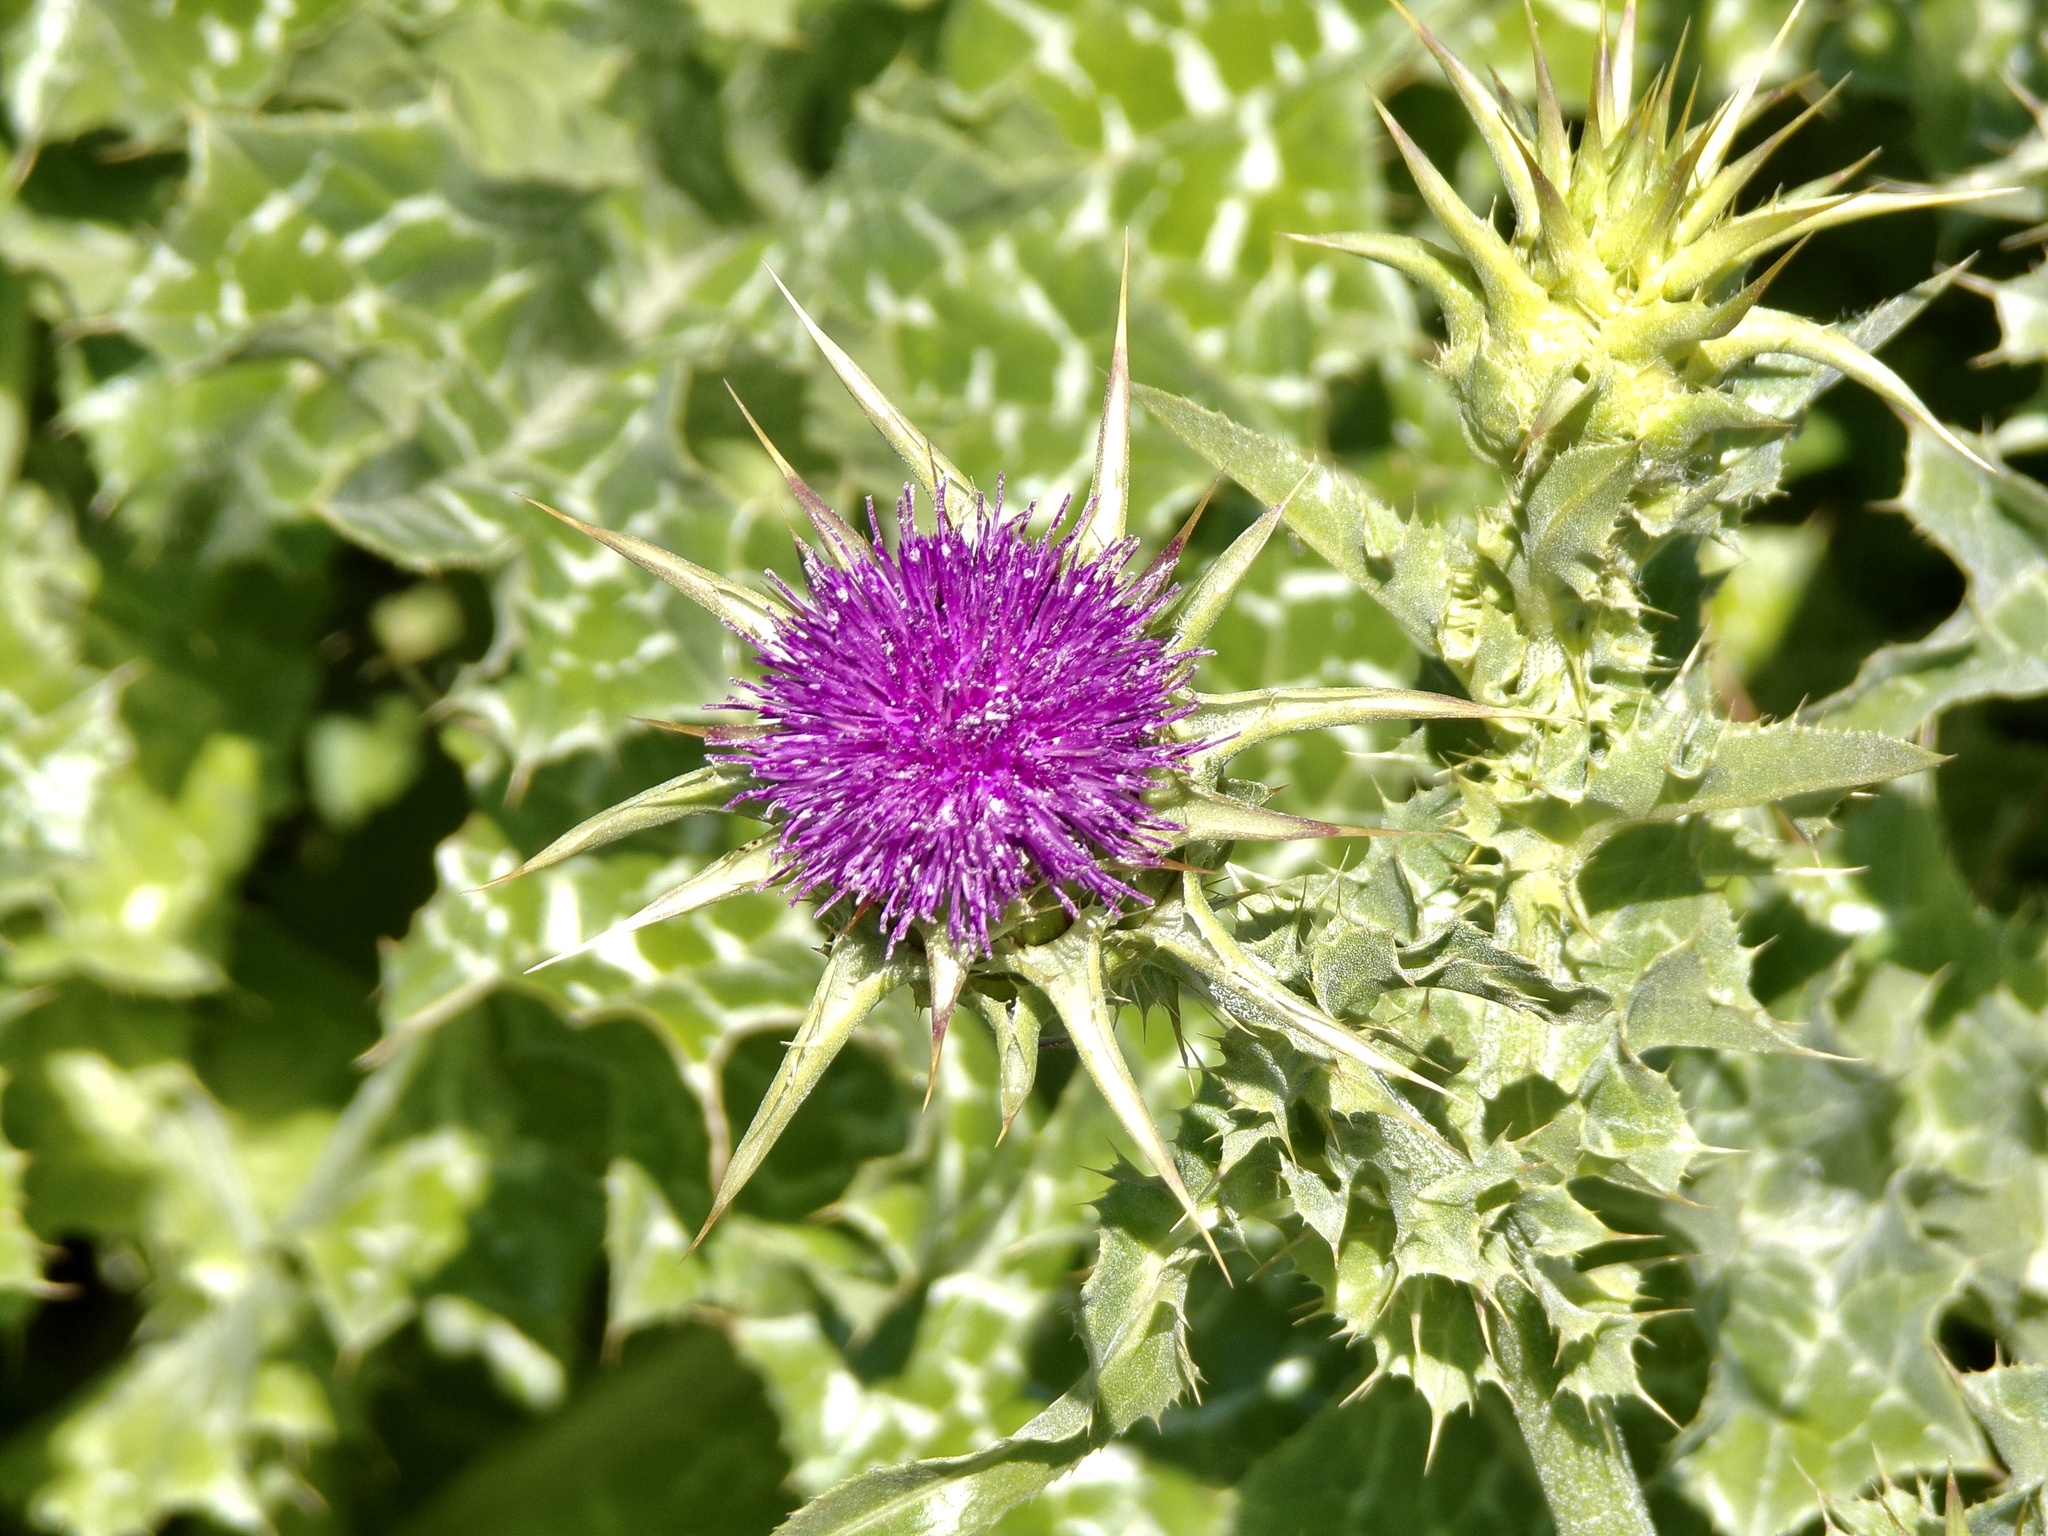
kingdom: Plantae
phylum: Tracheophyta
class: Magnoliopsida
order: Asterales
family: Asteraceae
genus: Silybum
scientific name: Silybum marianum
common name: Milk thistle
